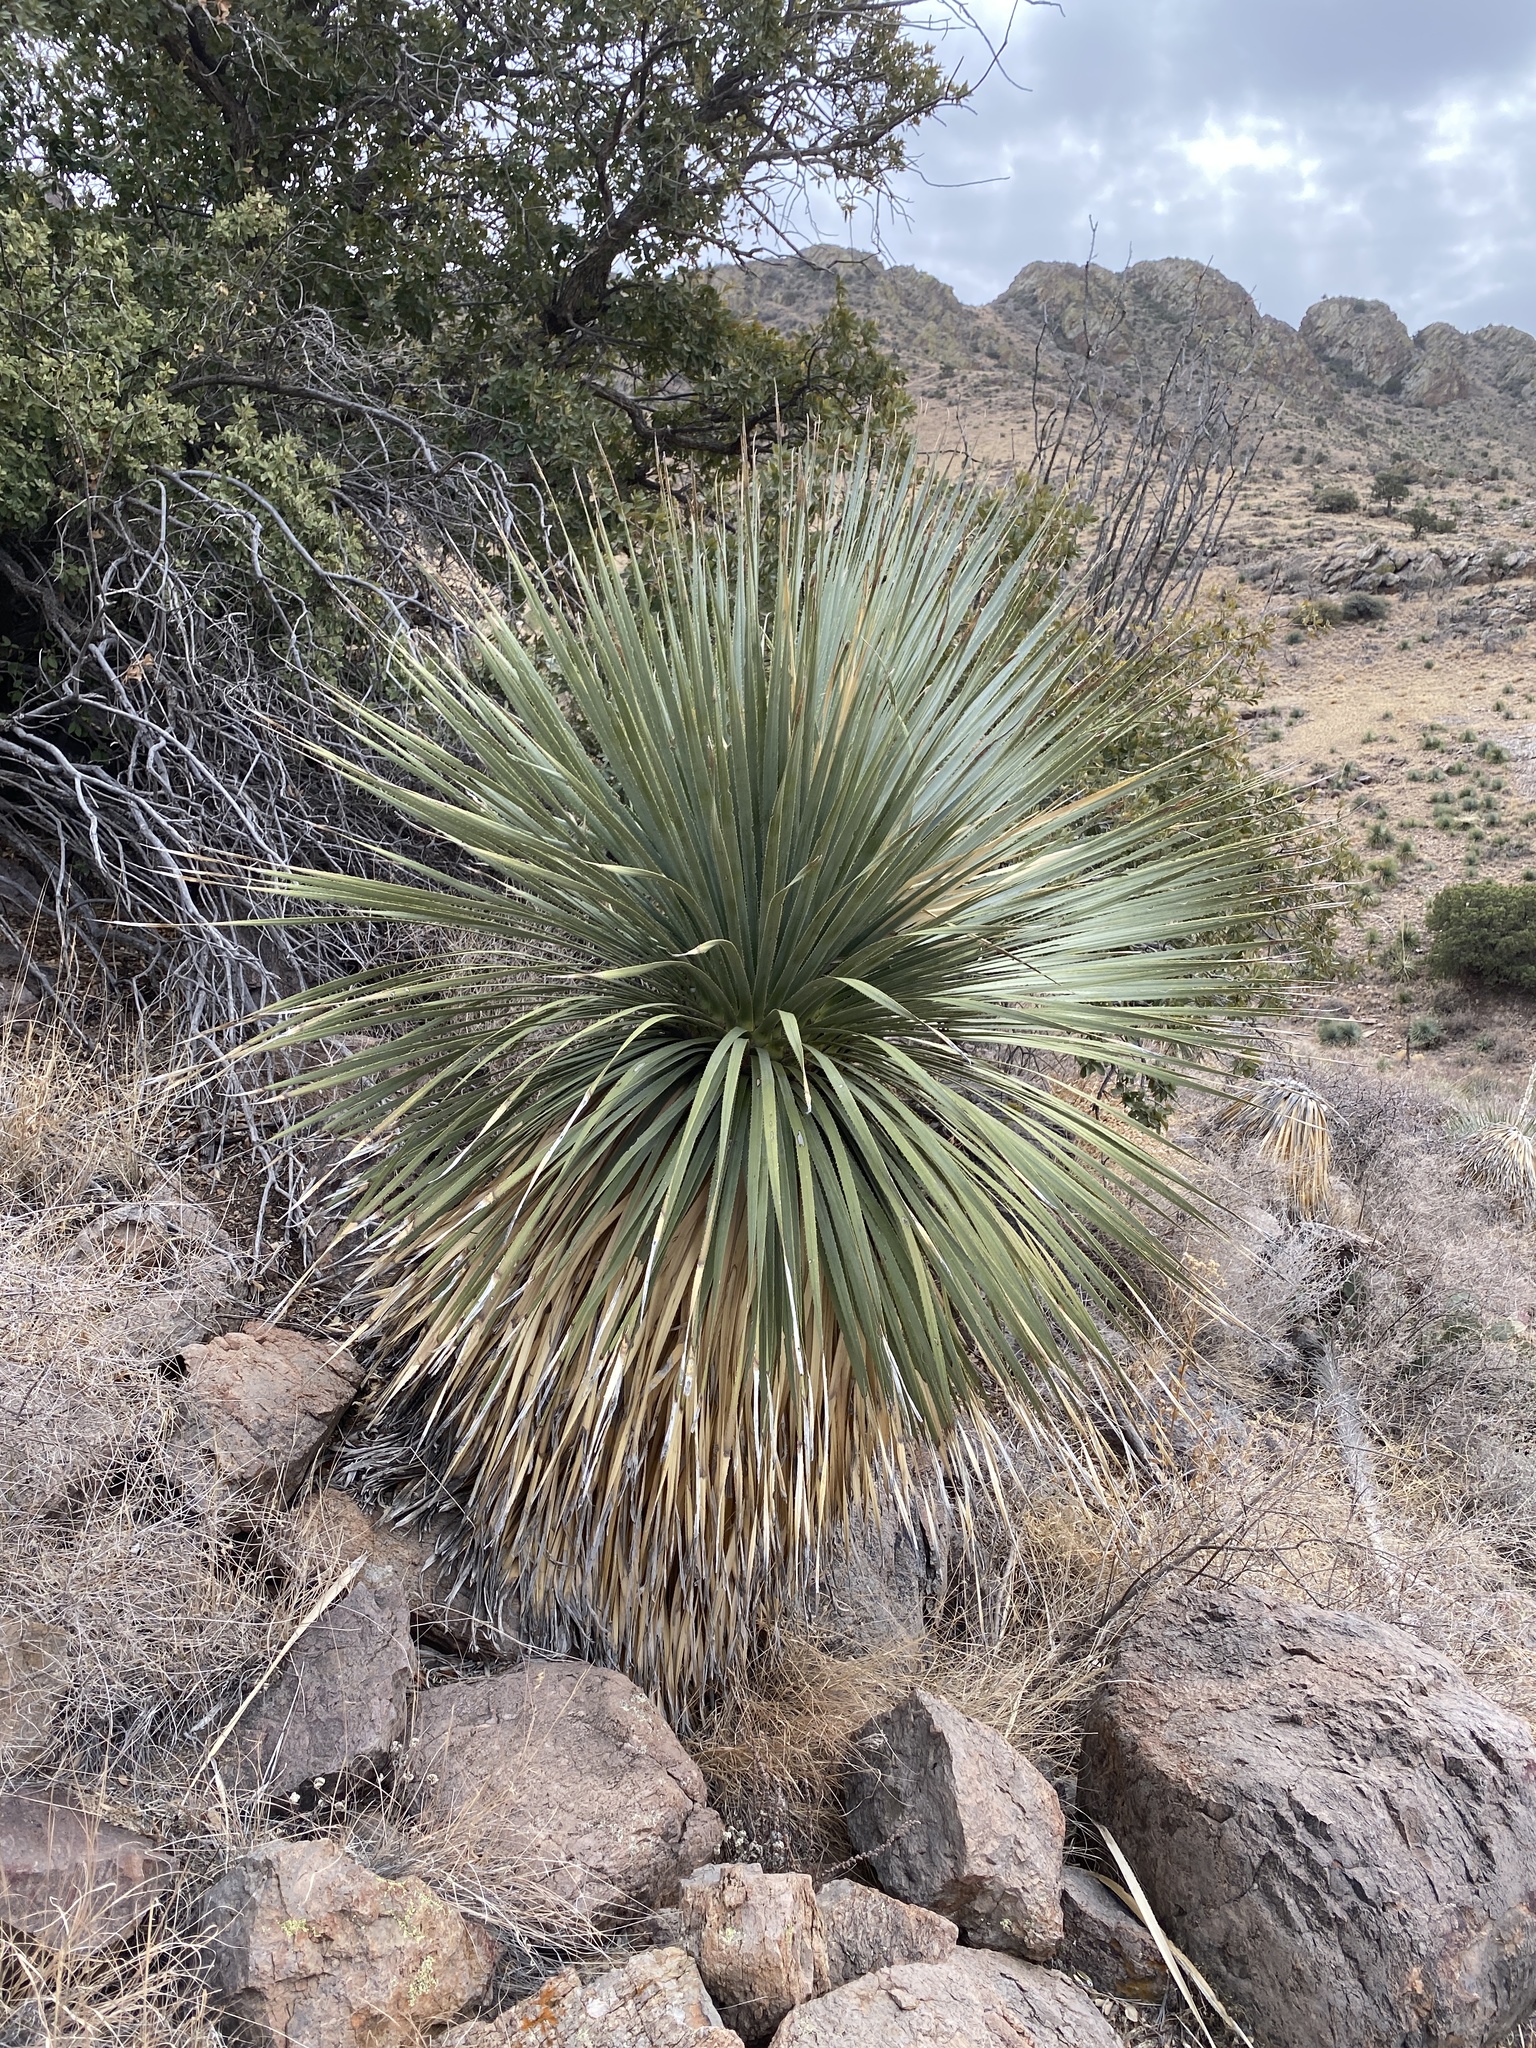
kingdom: Plantae
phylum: Tracheophyta
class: Liliopsida
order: Asparagales
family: Asparagaceae
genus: Dasylirion
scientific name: Dasylirion wheeleri
